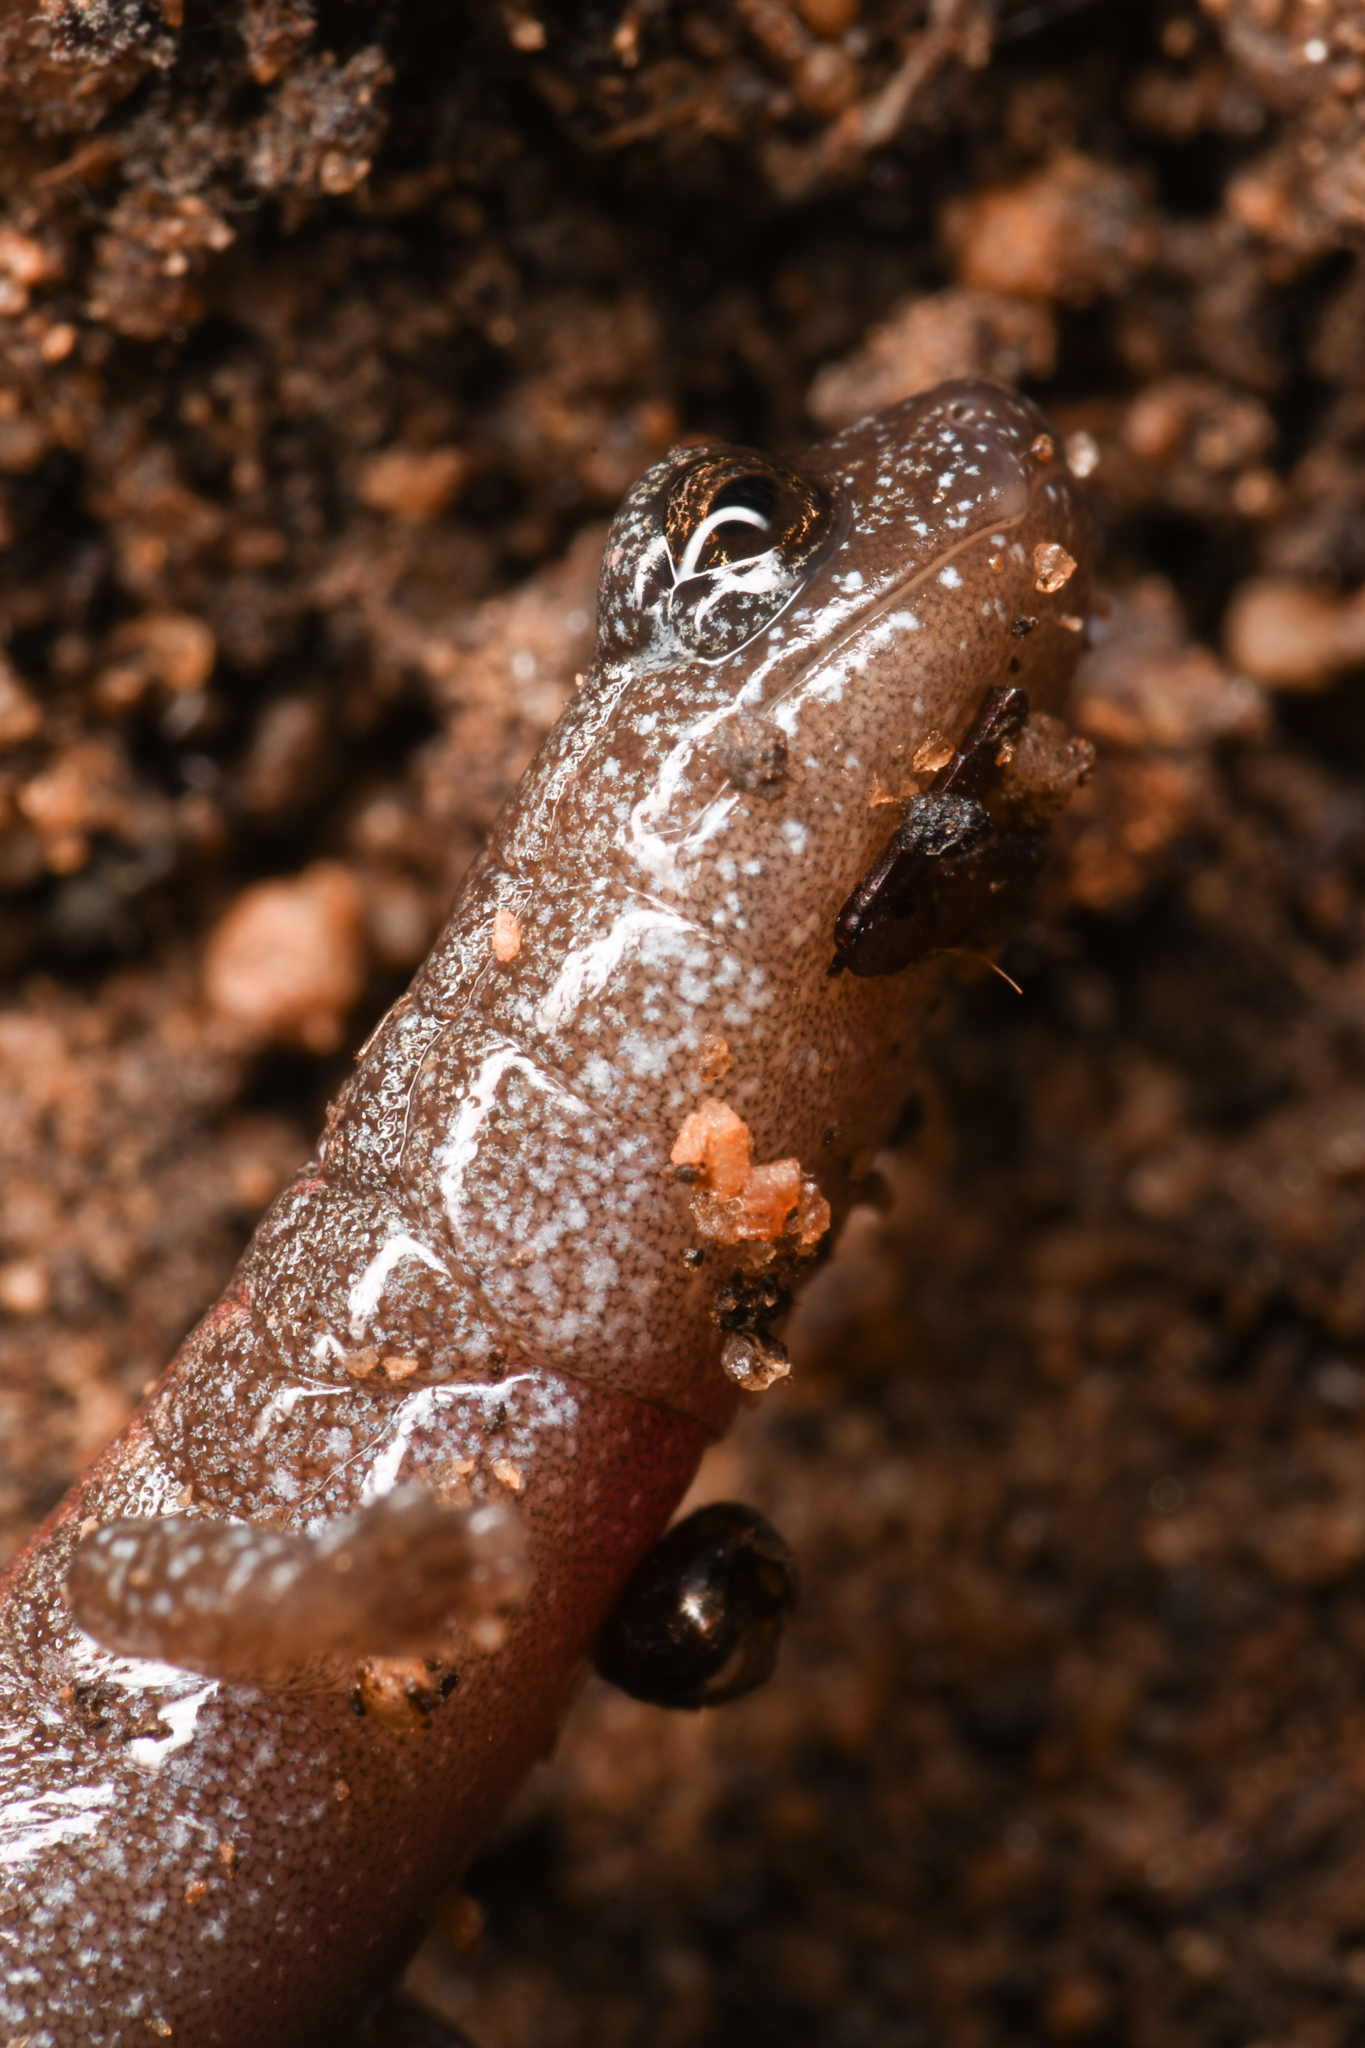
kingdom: Animalia
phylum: Chordata
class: Amphibia
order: Caudata
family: Plethodontidae
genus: Batrachoseps
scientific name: Batrachoseps major
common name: Garden slender salamander
